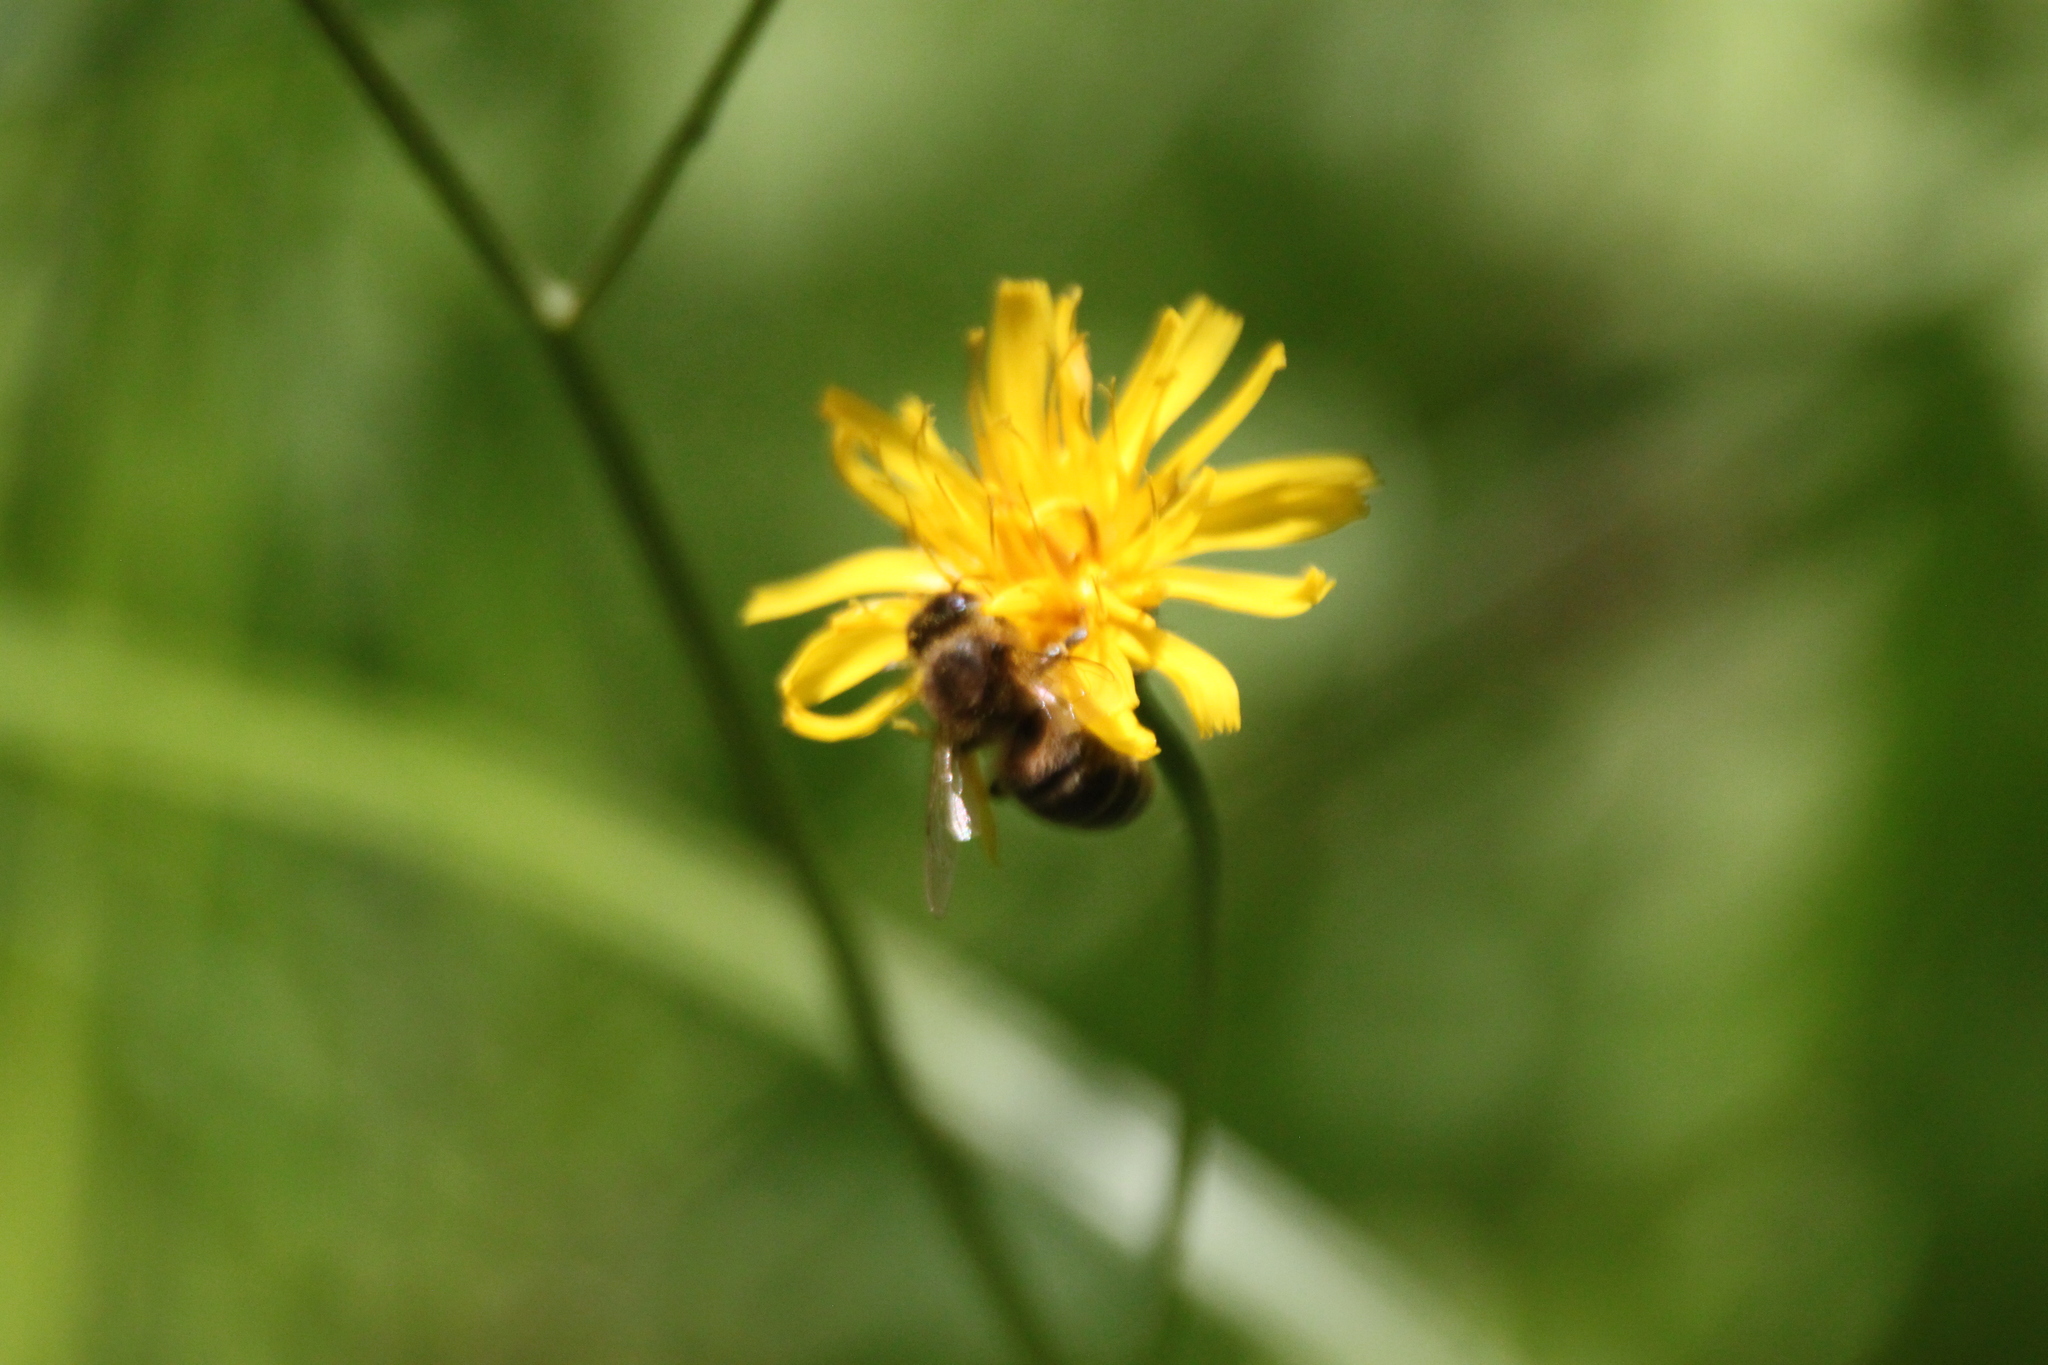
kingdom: Animalia
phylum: Arthropoda
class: Insecta
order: Hymenoptera
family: Apidae
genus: Apis
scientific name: Apis mellifera
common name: Honey bee
